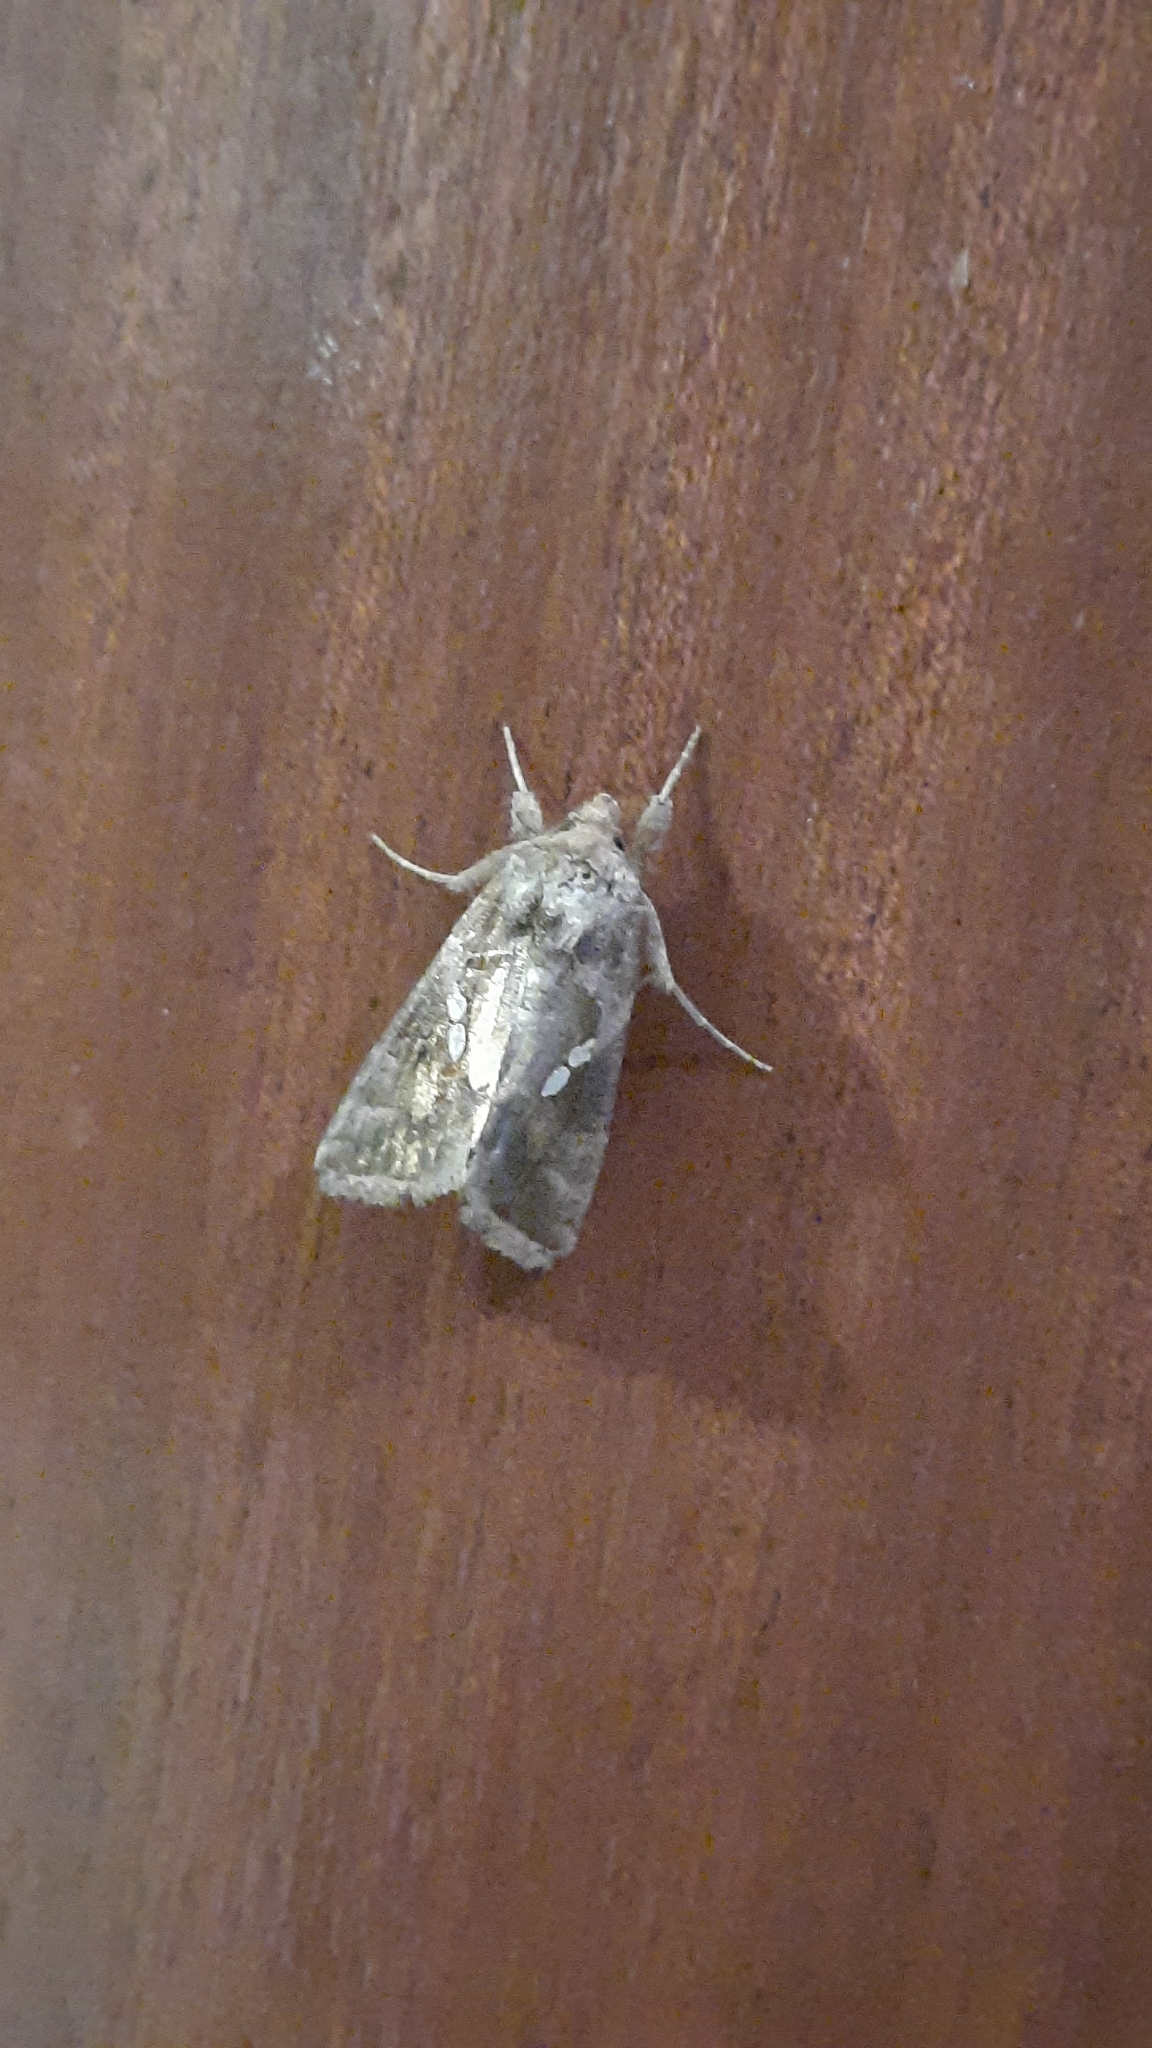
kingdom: Animalia
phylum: Arthropoda
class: Insecta
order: Lepidoptera
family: Noctuidae
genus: Chrysodeixis
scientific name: Chrysodeixis chalcites
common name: Golden twin-spot
